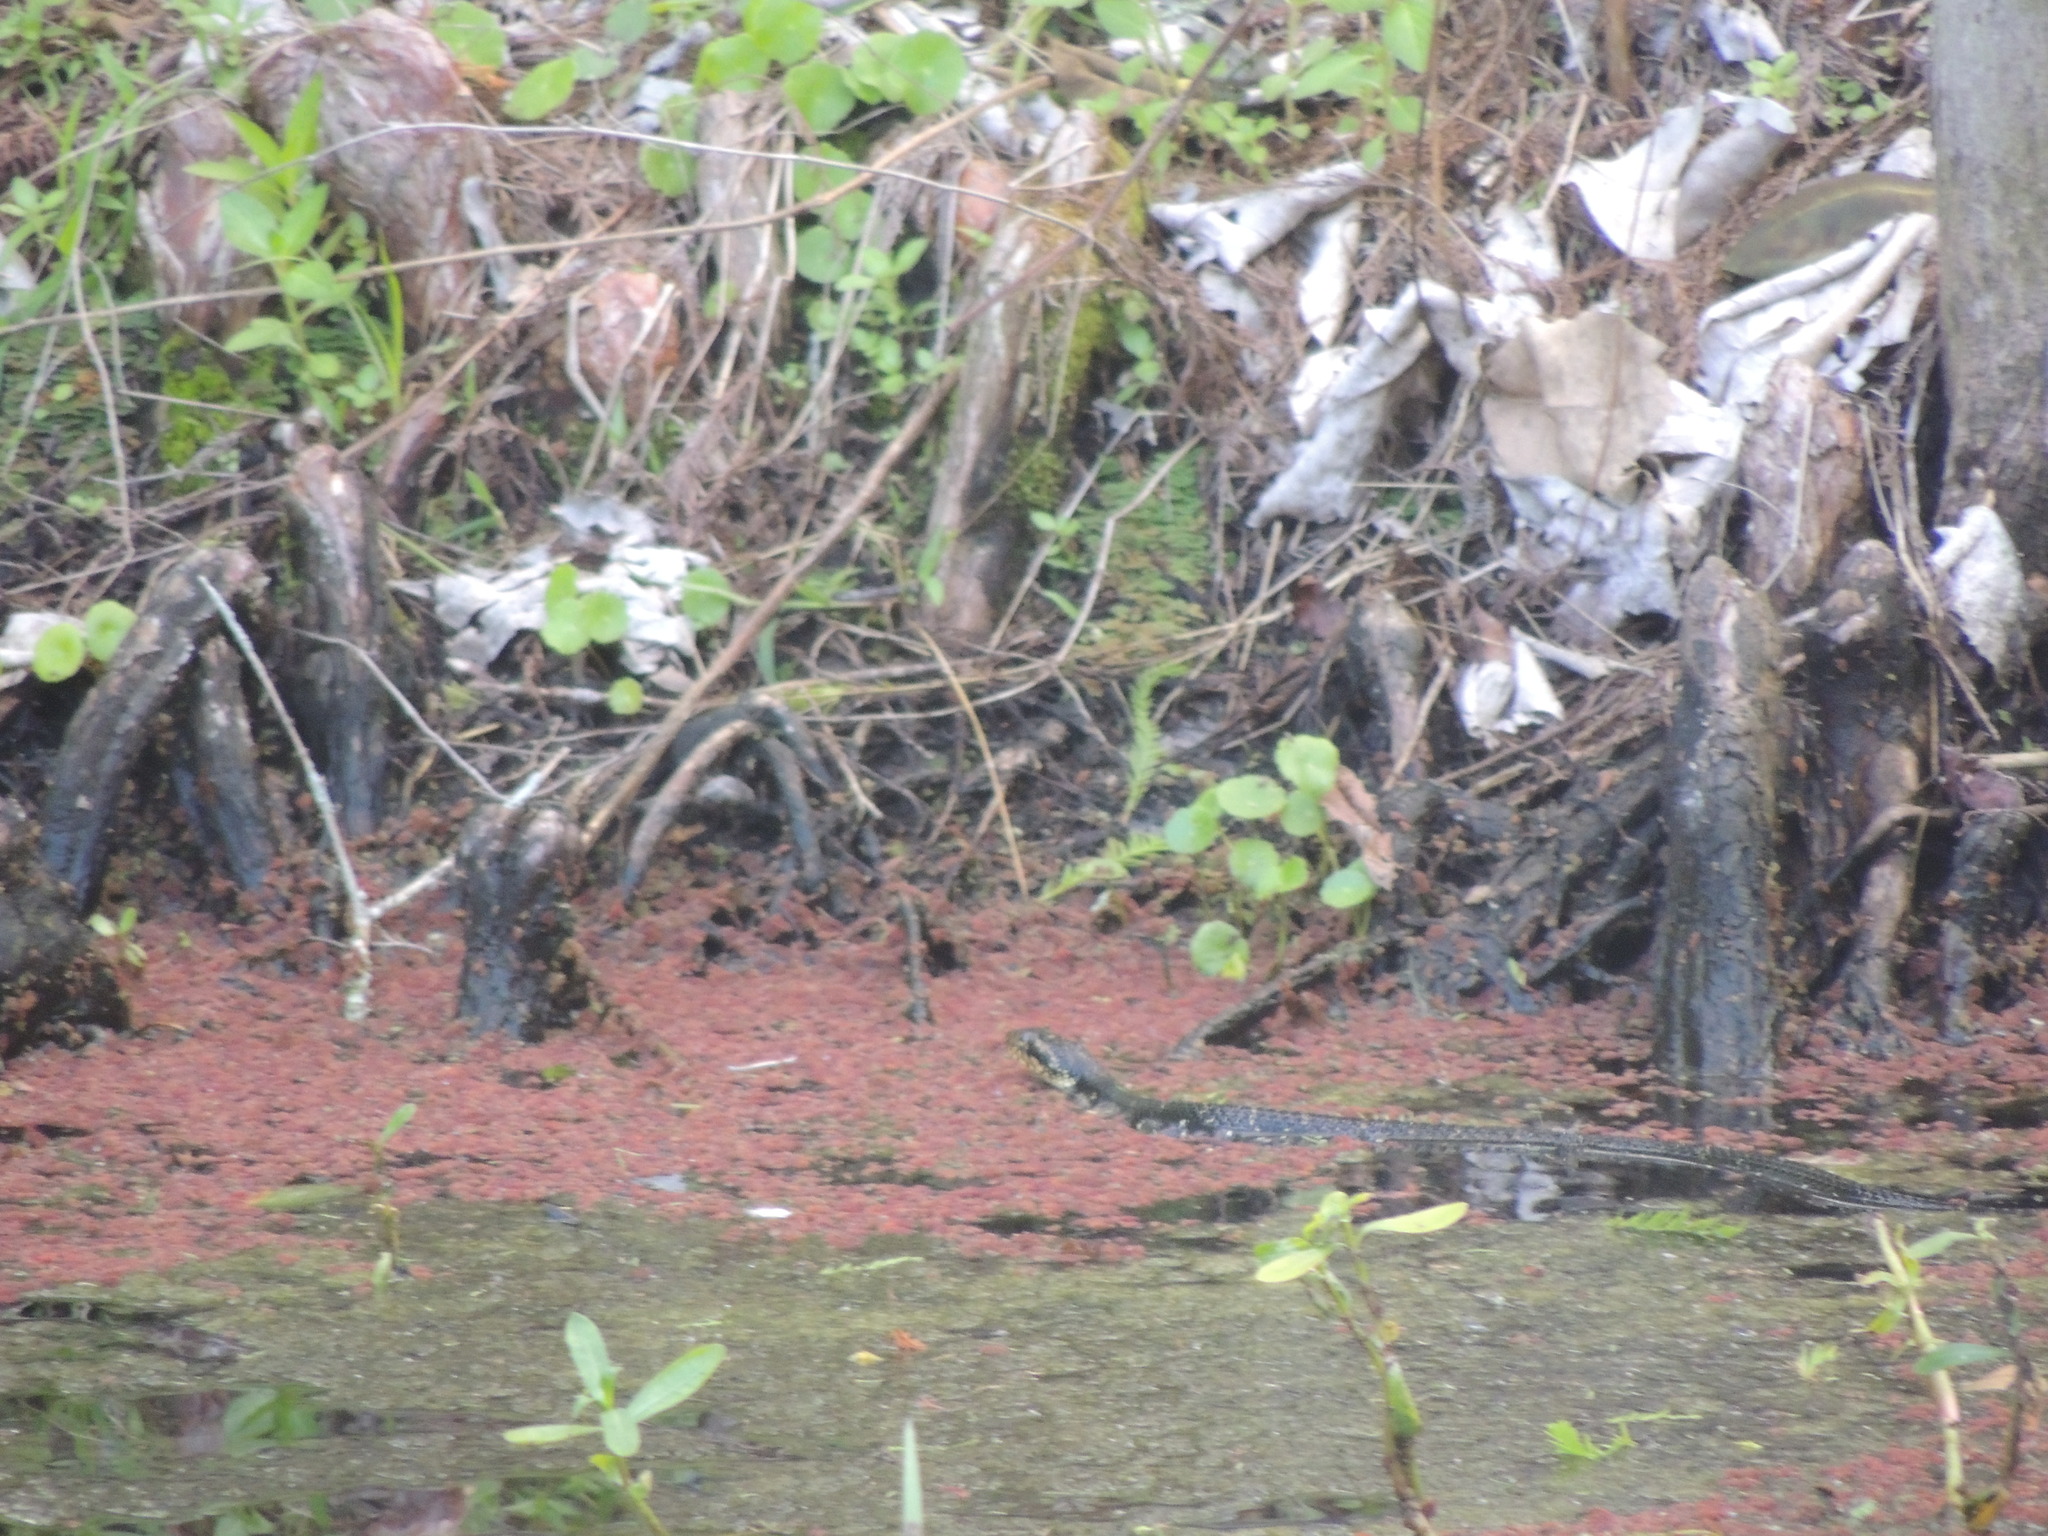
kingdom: Animalia
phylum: Chordata
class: Squamata
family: Colubridae
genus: Nerodia
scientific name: Nerodia fasciata
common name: Southern water snake
